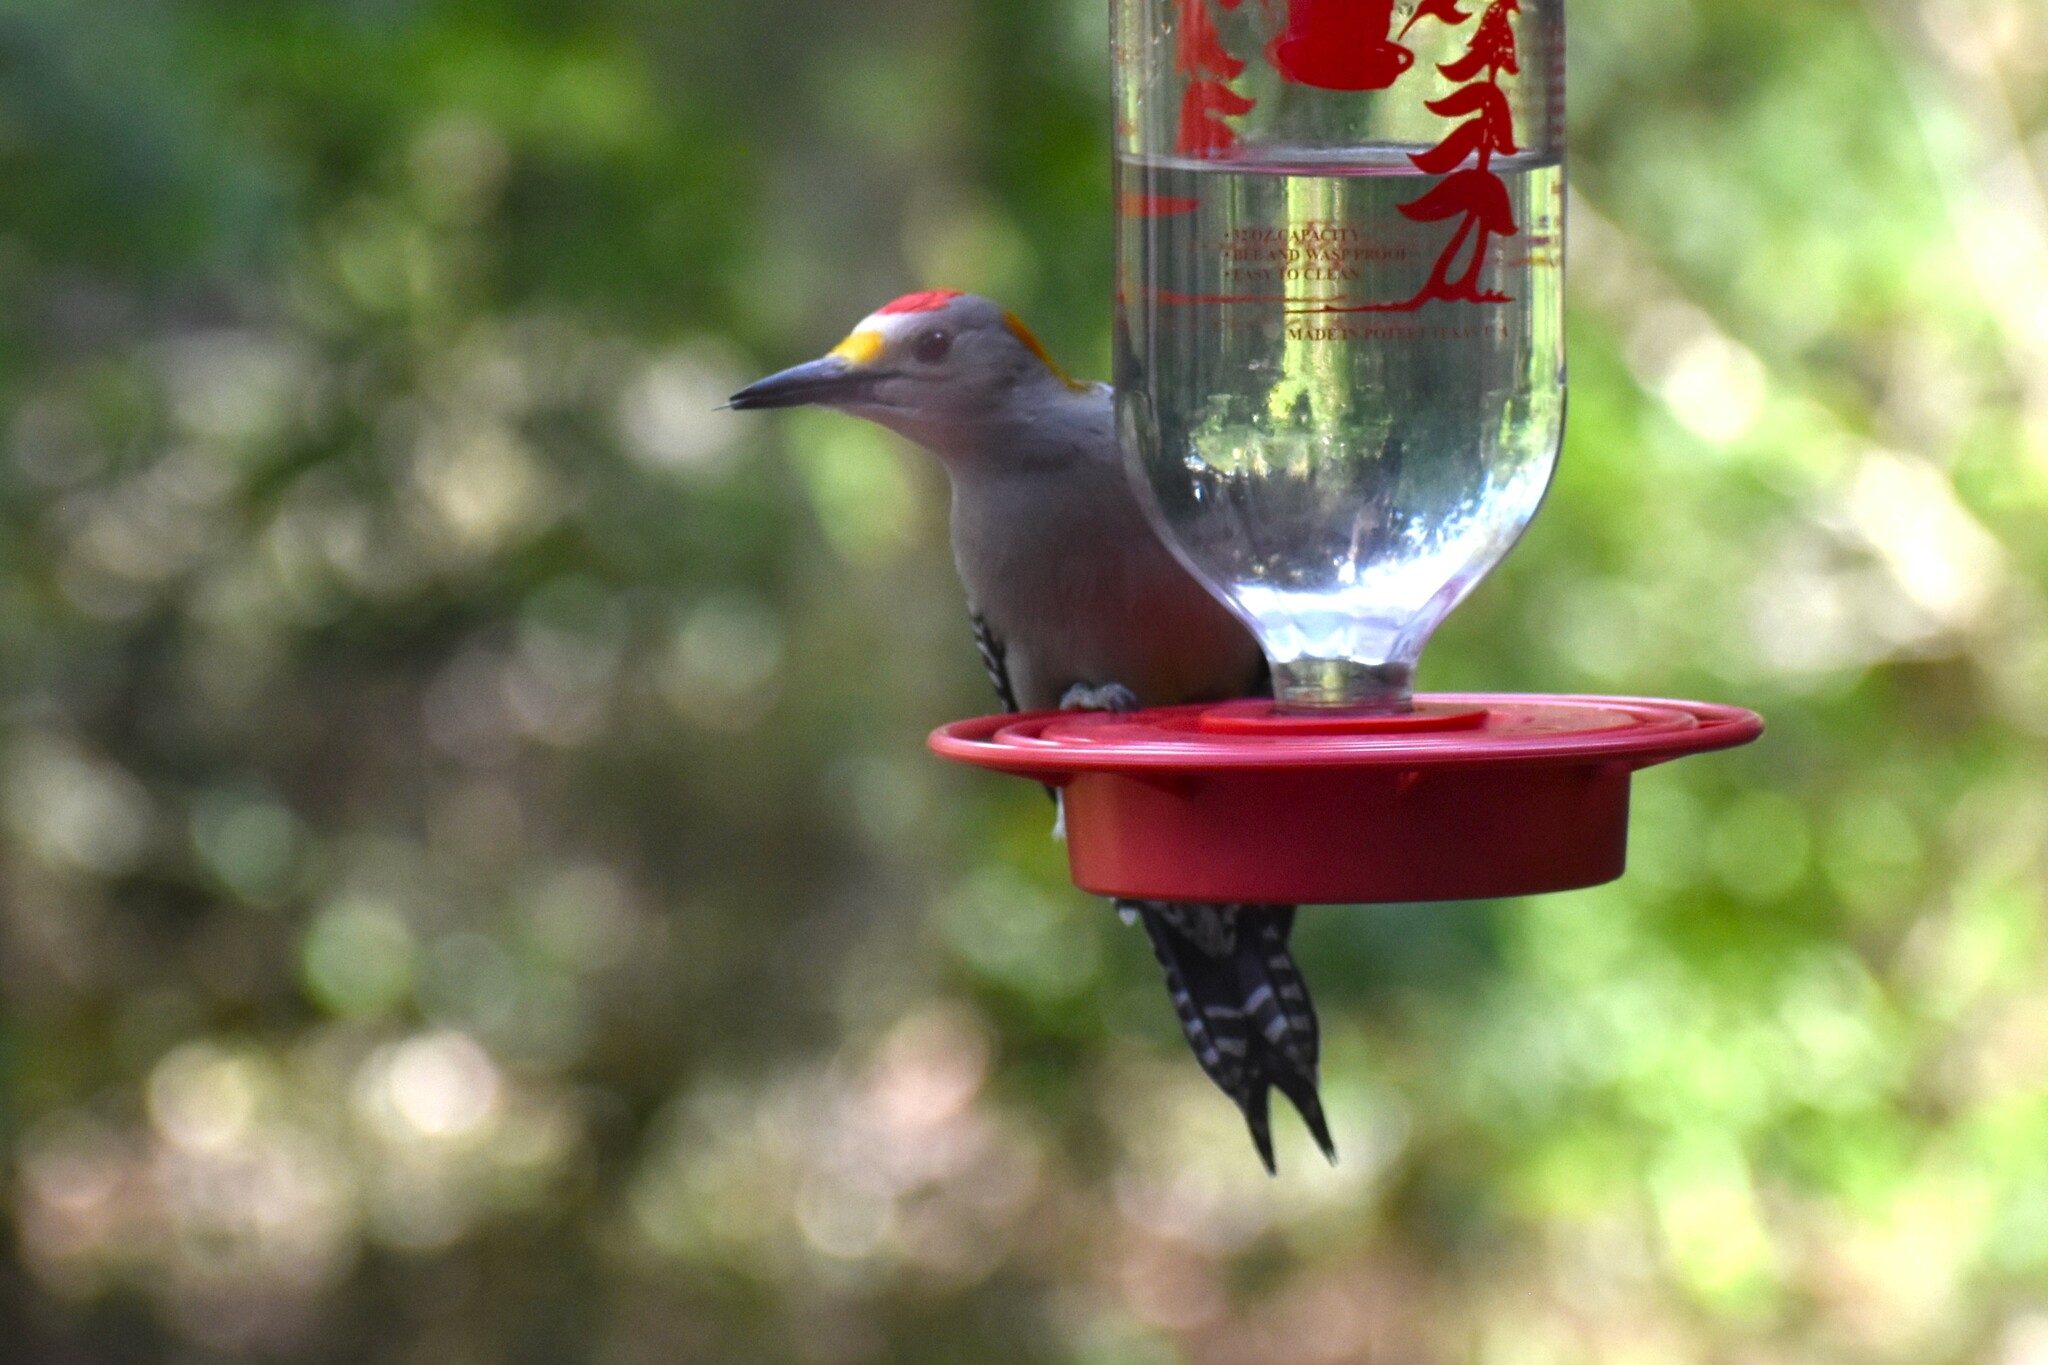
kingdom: Animalia
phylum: Chordata
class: Aves
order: Piciformes
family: Picidae
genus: Melanerpes
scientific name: Melanerpes aurifrons
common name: Golden-fronted woodpecker
